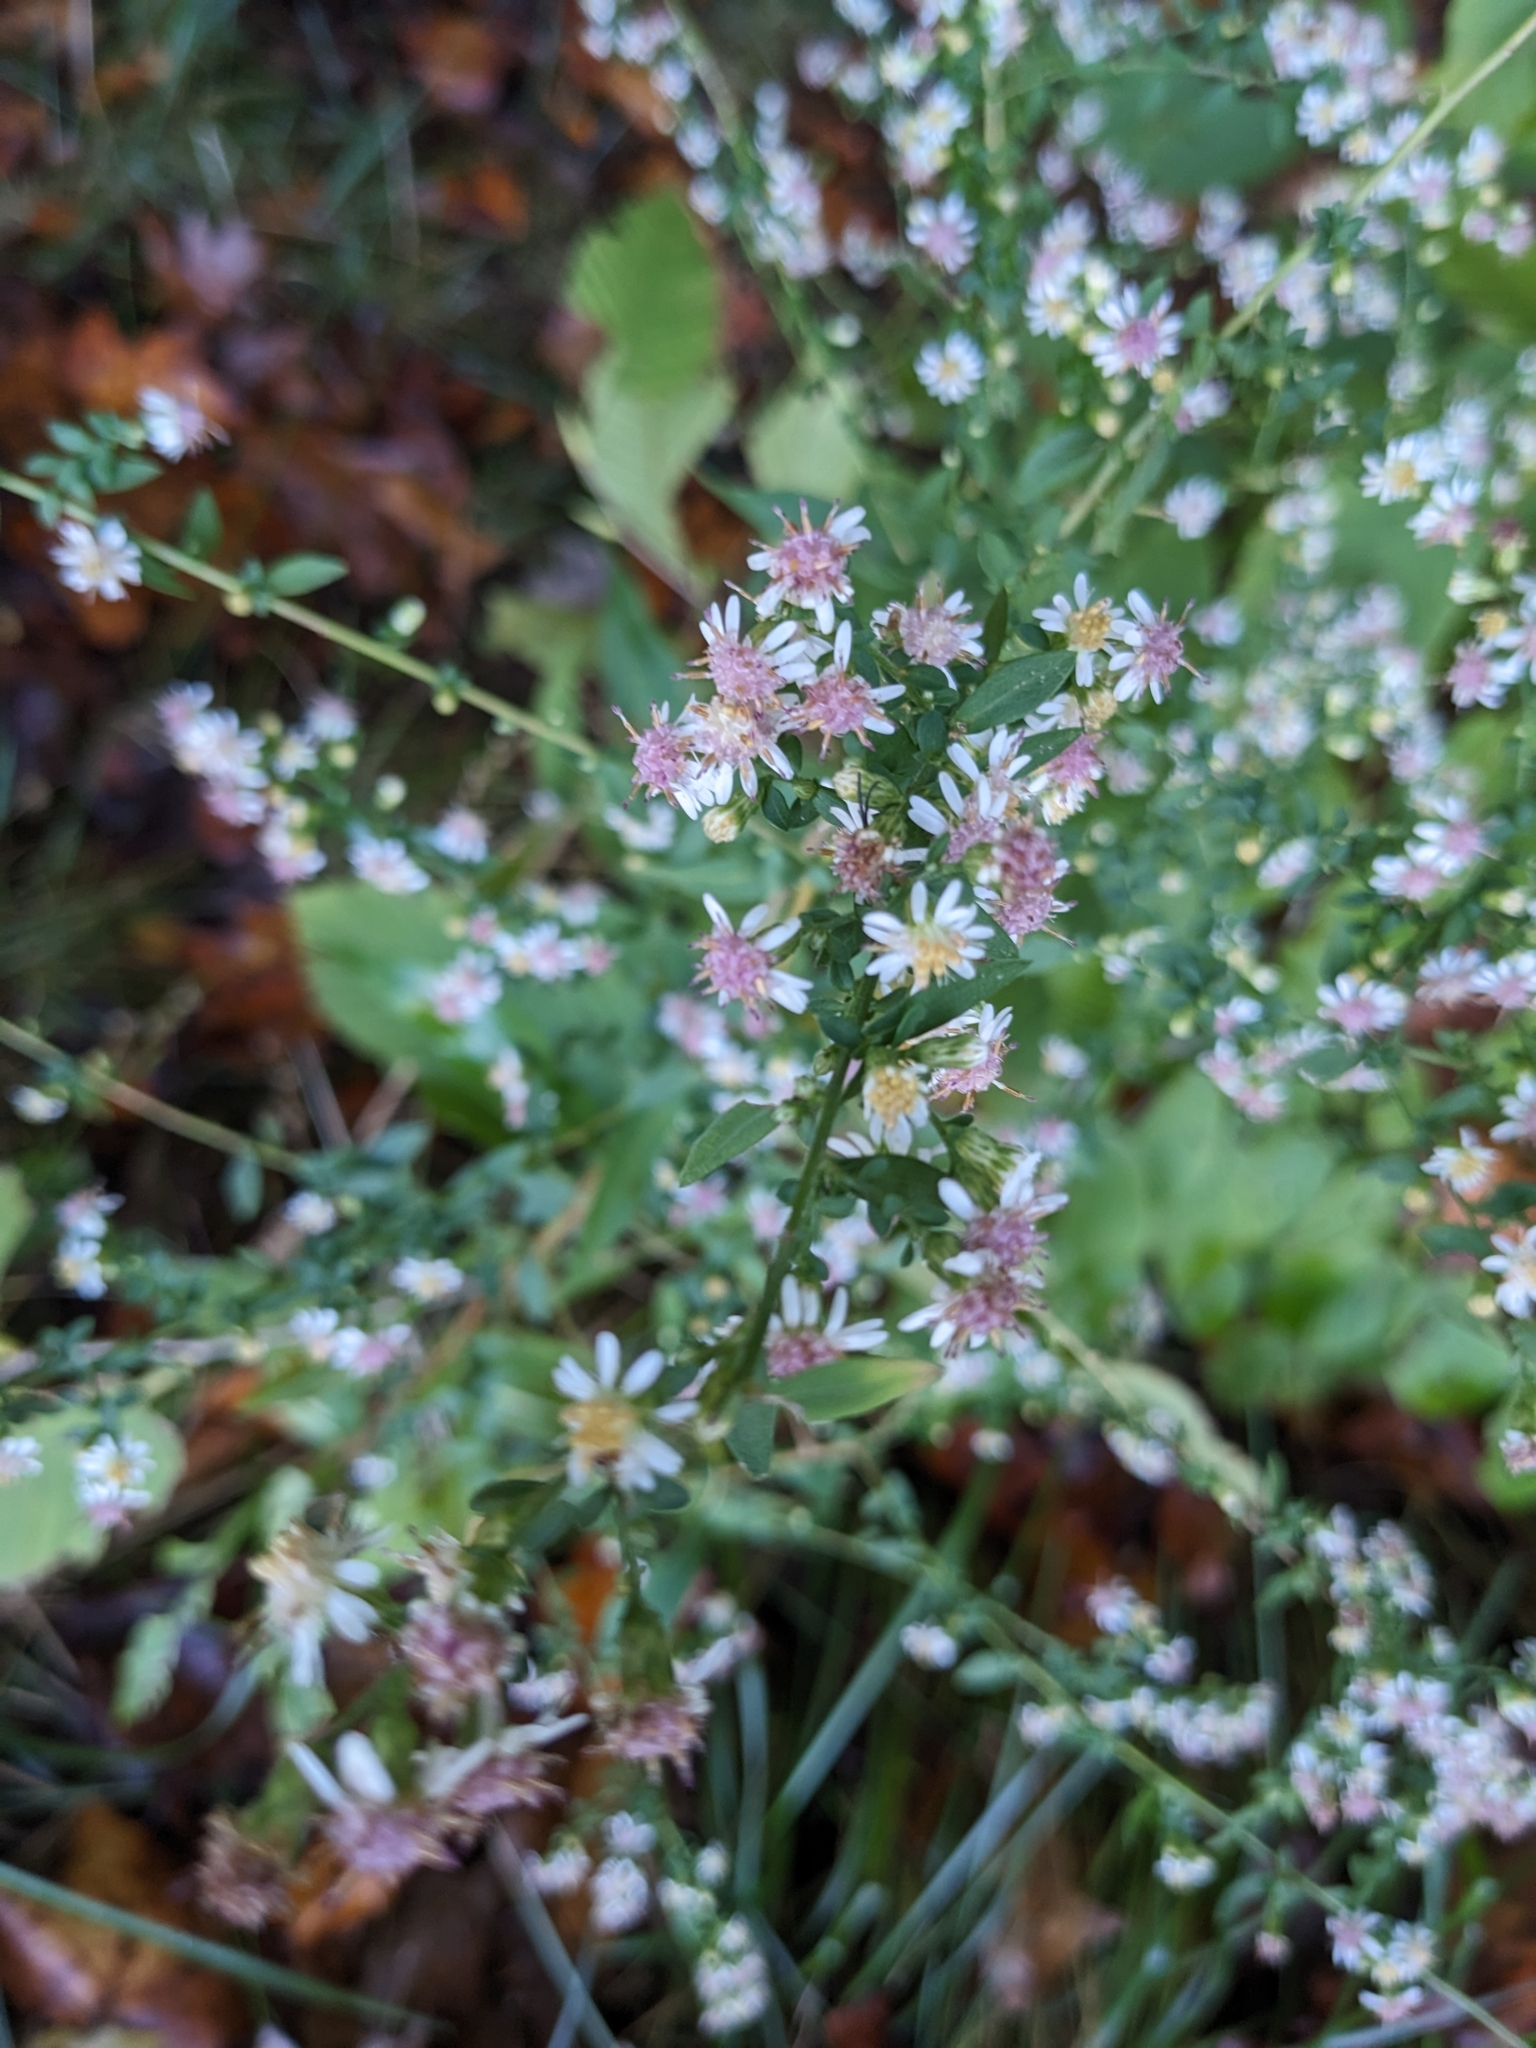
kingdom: Plantae
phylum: Tracheophyta
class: Magnoliopsida
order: Asterales
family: Asteraceae
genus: Symphyotrichum
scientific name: Symphyotrichum lateriflorum
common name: Calico aster
